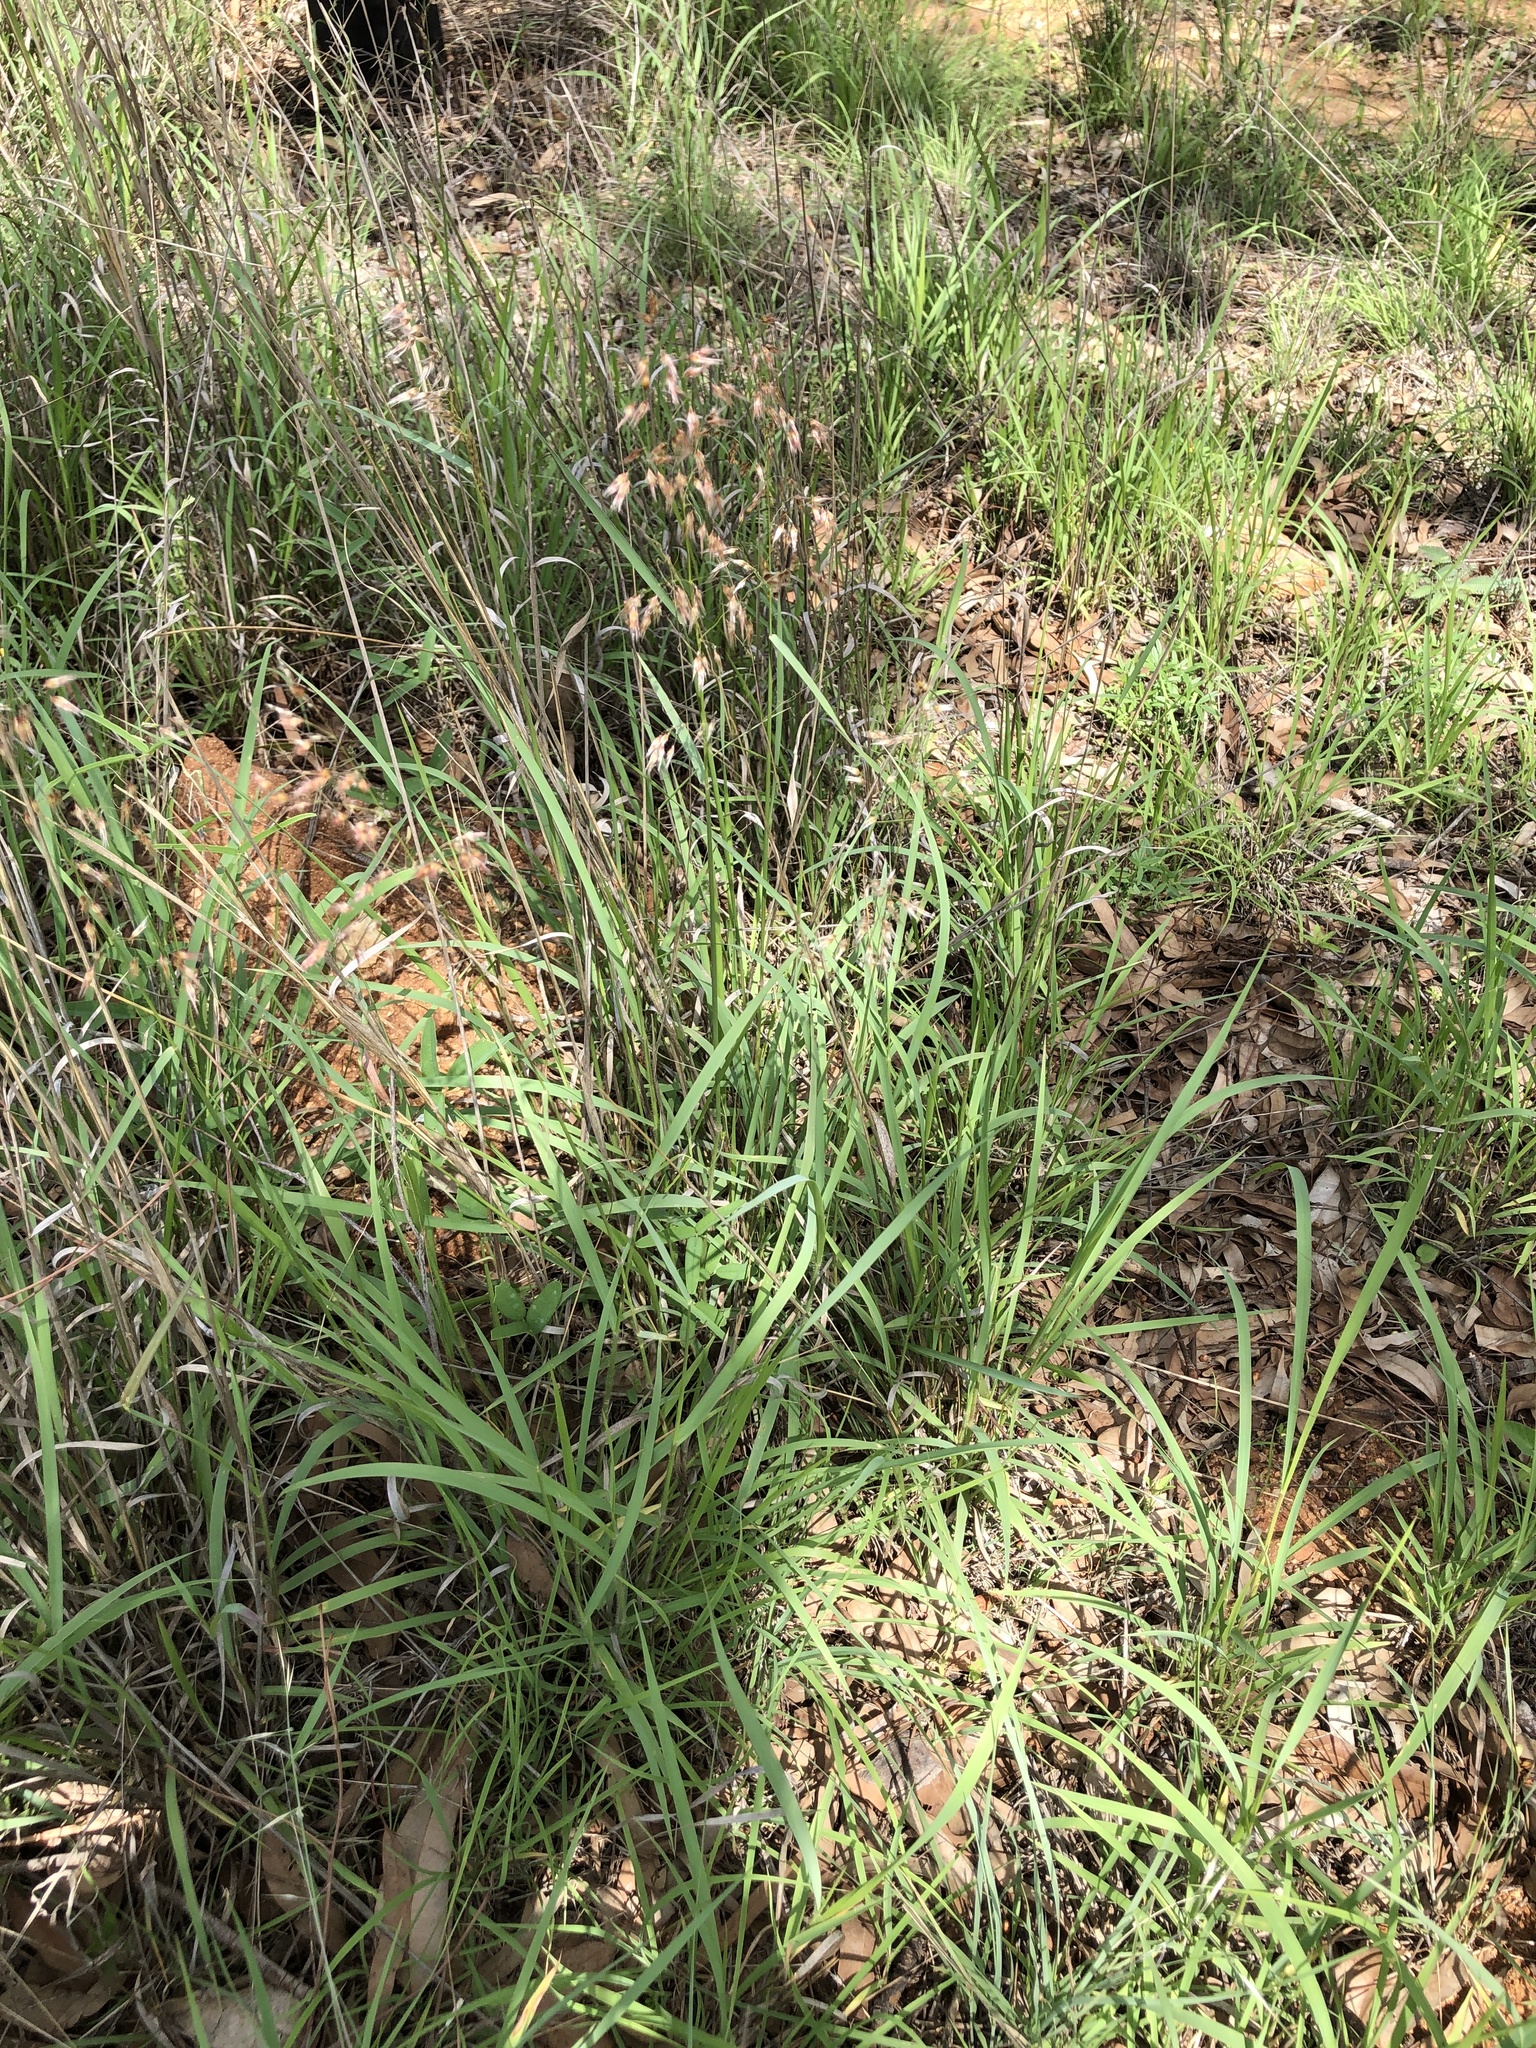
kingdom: Plantae
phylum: Tracheophyta
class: Liliopsida
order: Poales
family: Poaceae
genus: Melinis
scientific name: Melinis repens
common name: Rose natal grass
